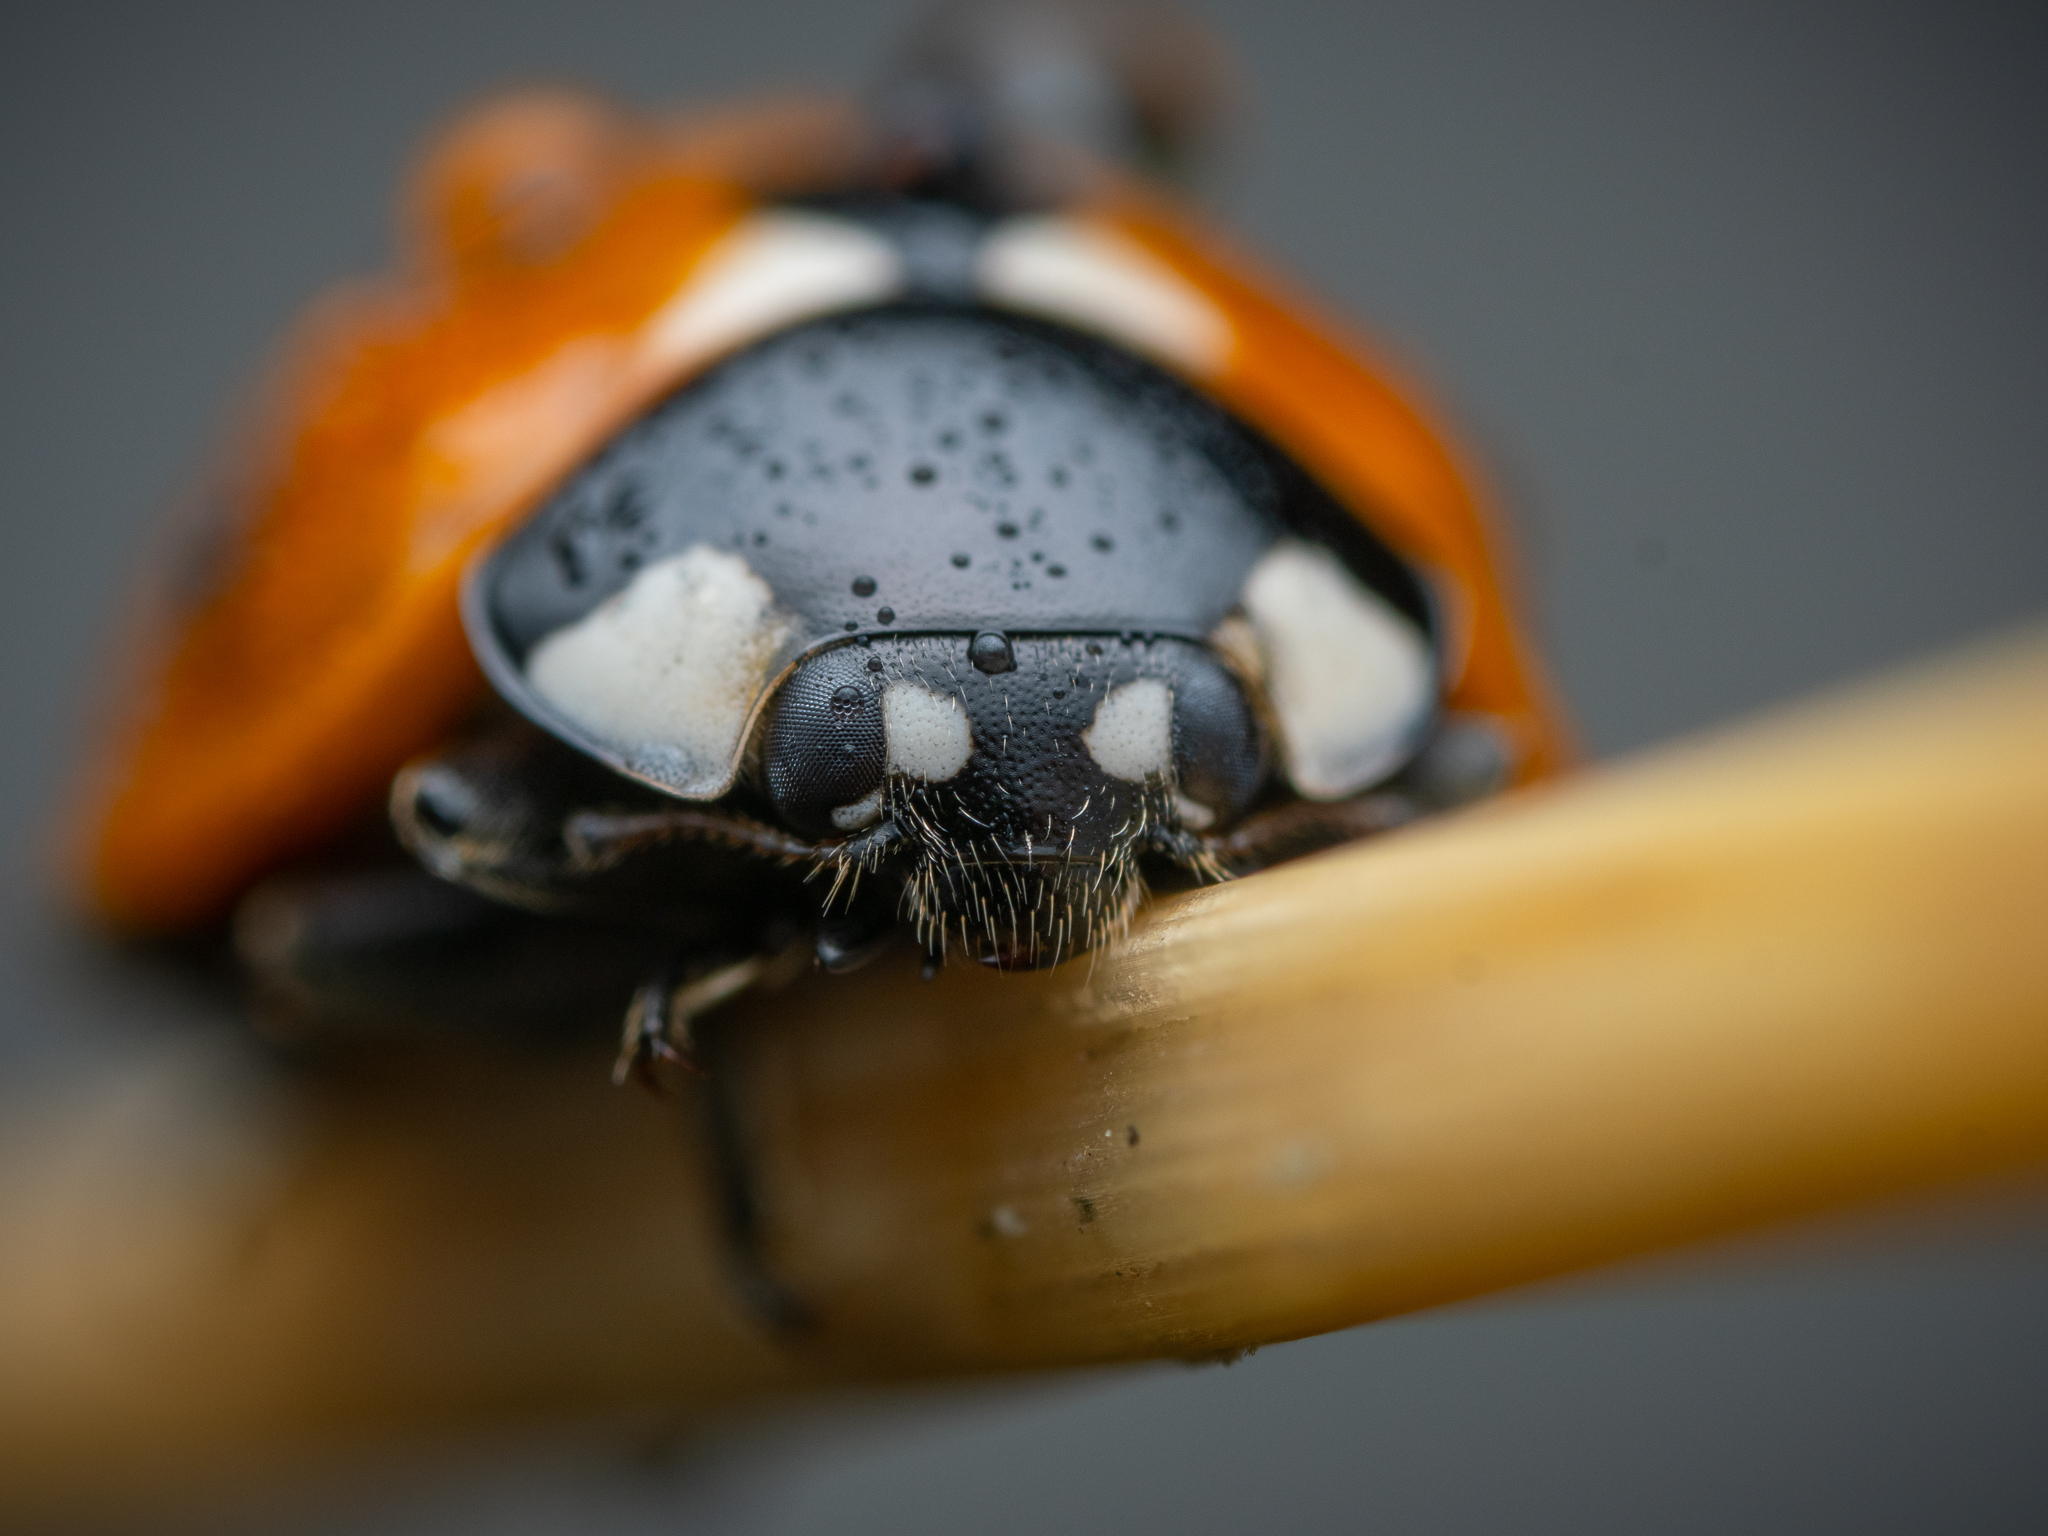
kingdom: Animalia
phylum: Arthropoda
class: Insecta
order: Coleoptera
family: Coccinellidae
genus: Coccinella
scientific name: Coccinella septempunctata
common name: Sevenspotted lady beetle
